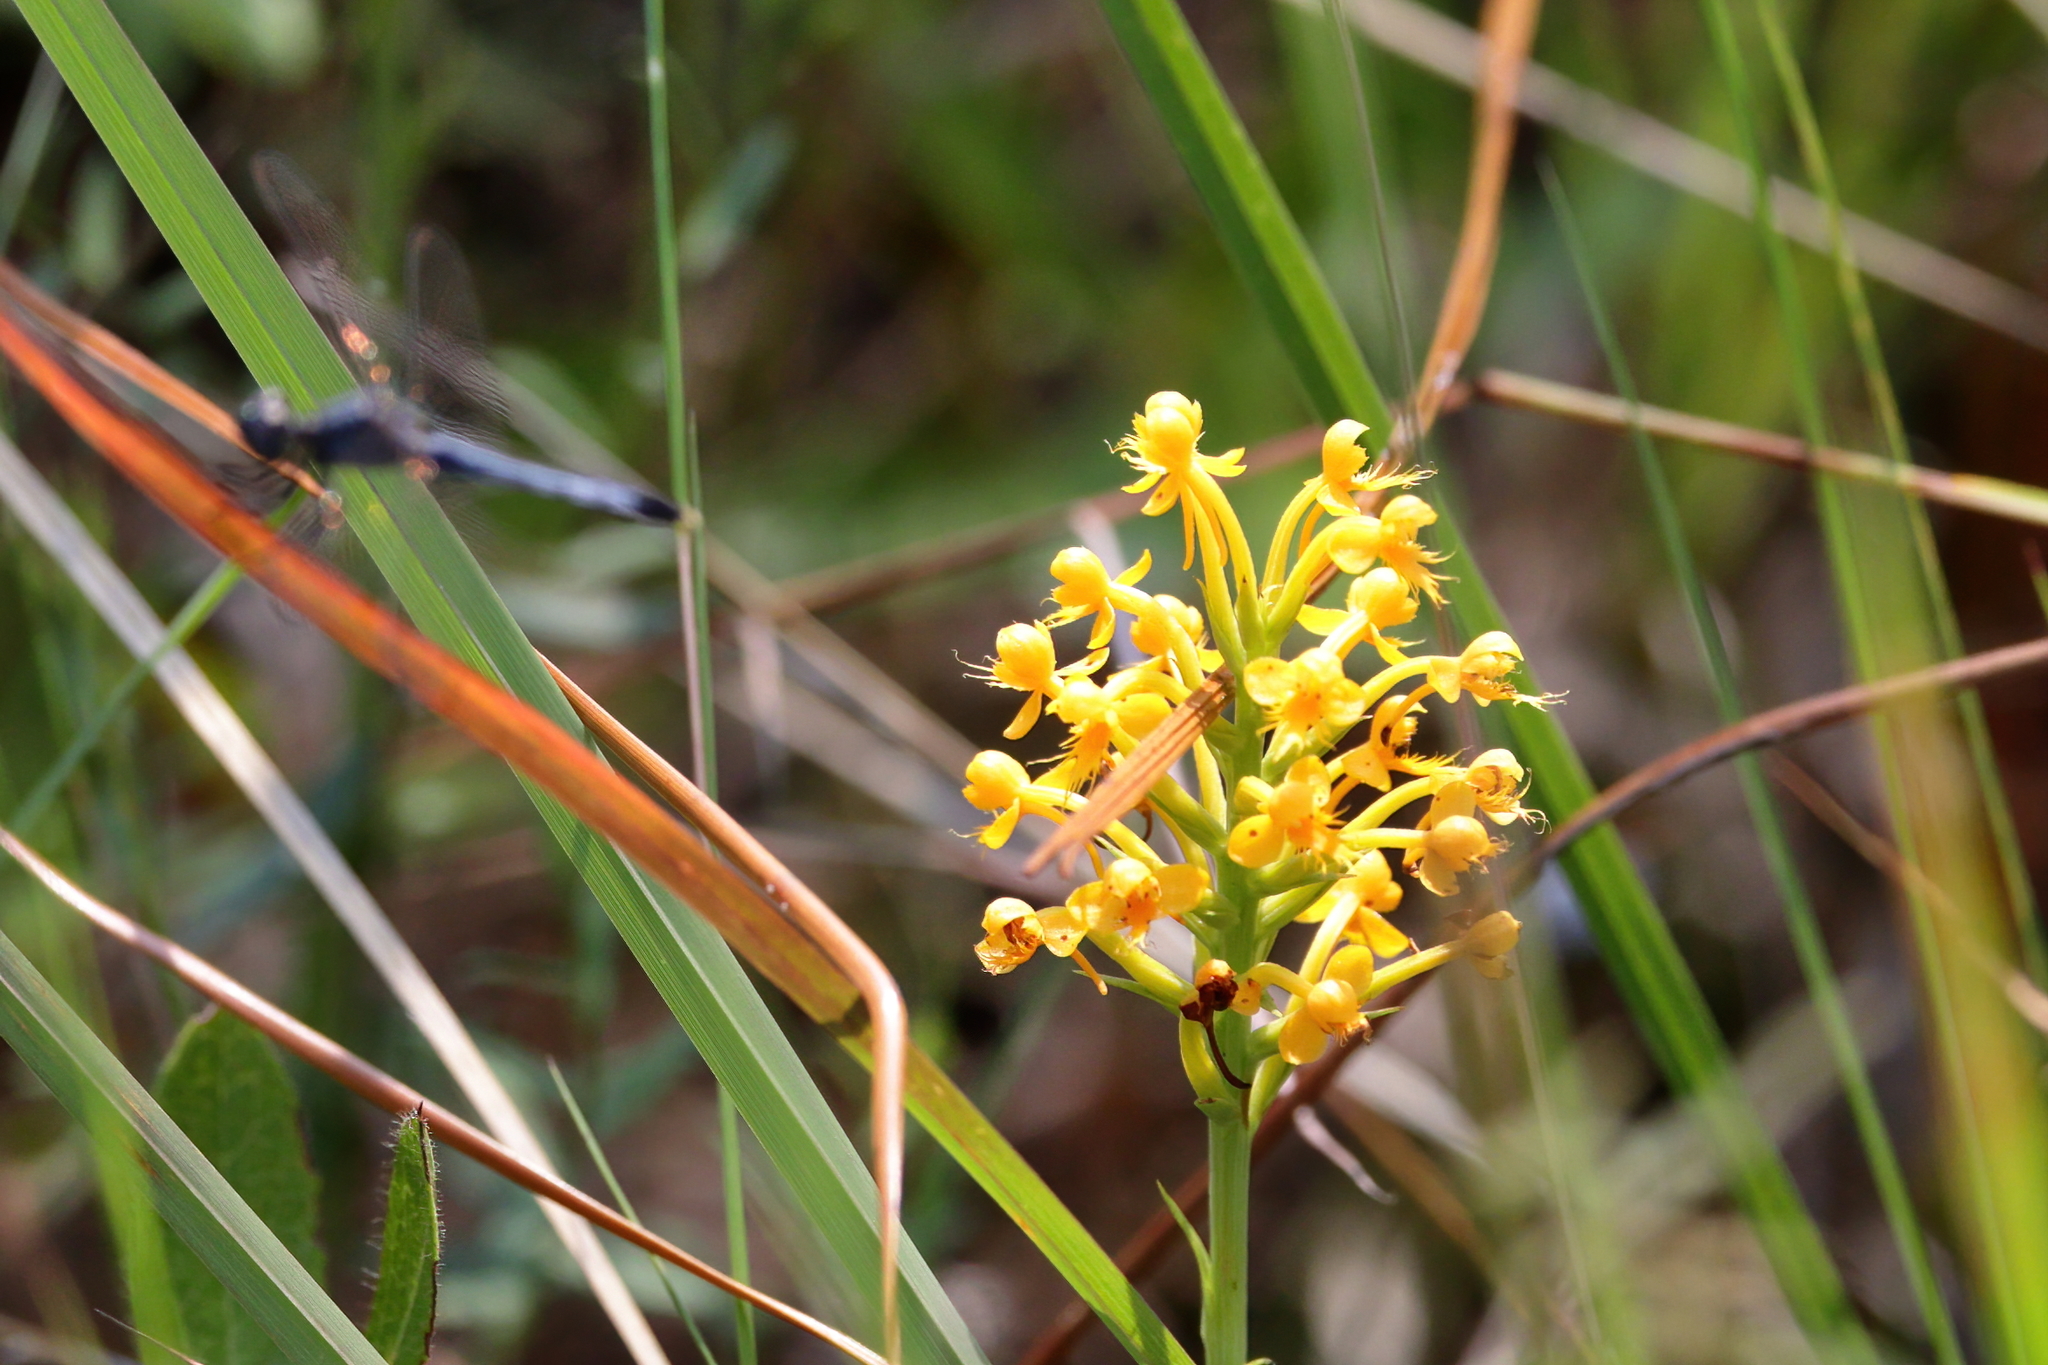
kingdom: Plantae
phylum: Tracheophyta
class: Liliopsida
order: Asparagales
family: Orchidaceae
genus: Platanthera
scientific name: Platanthera cristata
